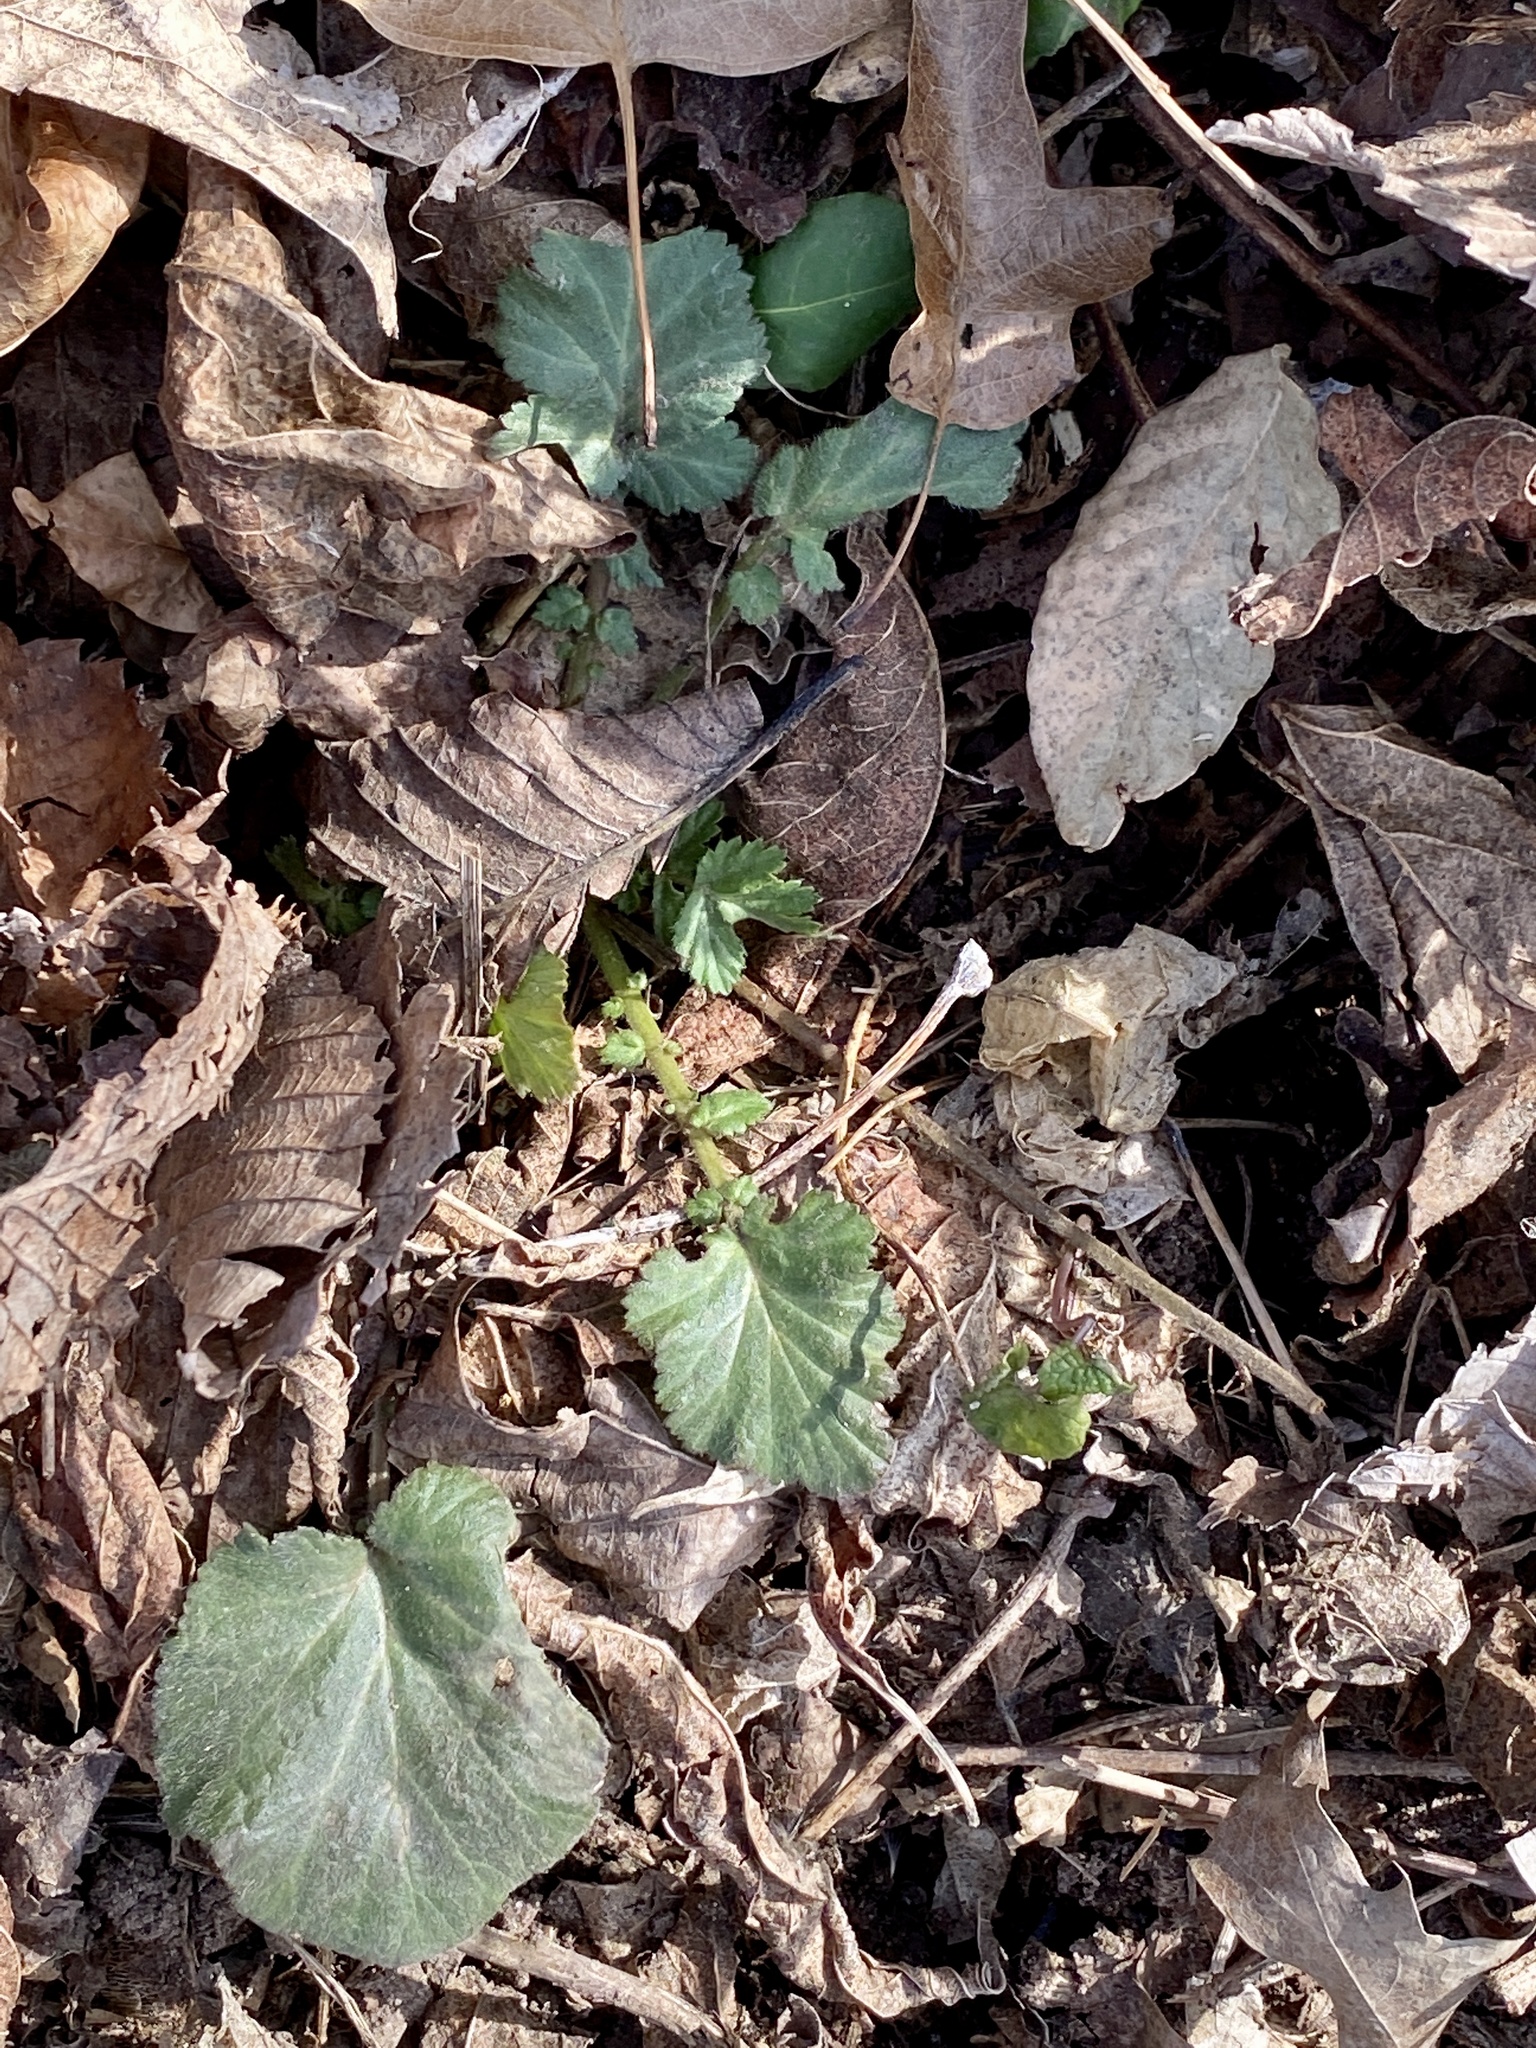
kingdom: Plantae
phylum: Tracheophyta
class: Magnoliopsida
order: Rosales
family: Rosaceae
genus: Geum
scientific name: Geum canadense
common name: White avens
